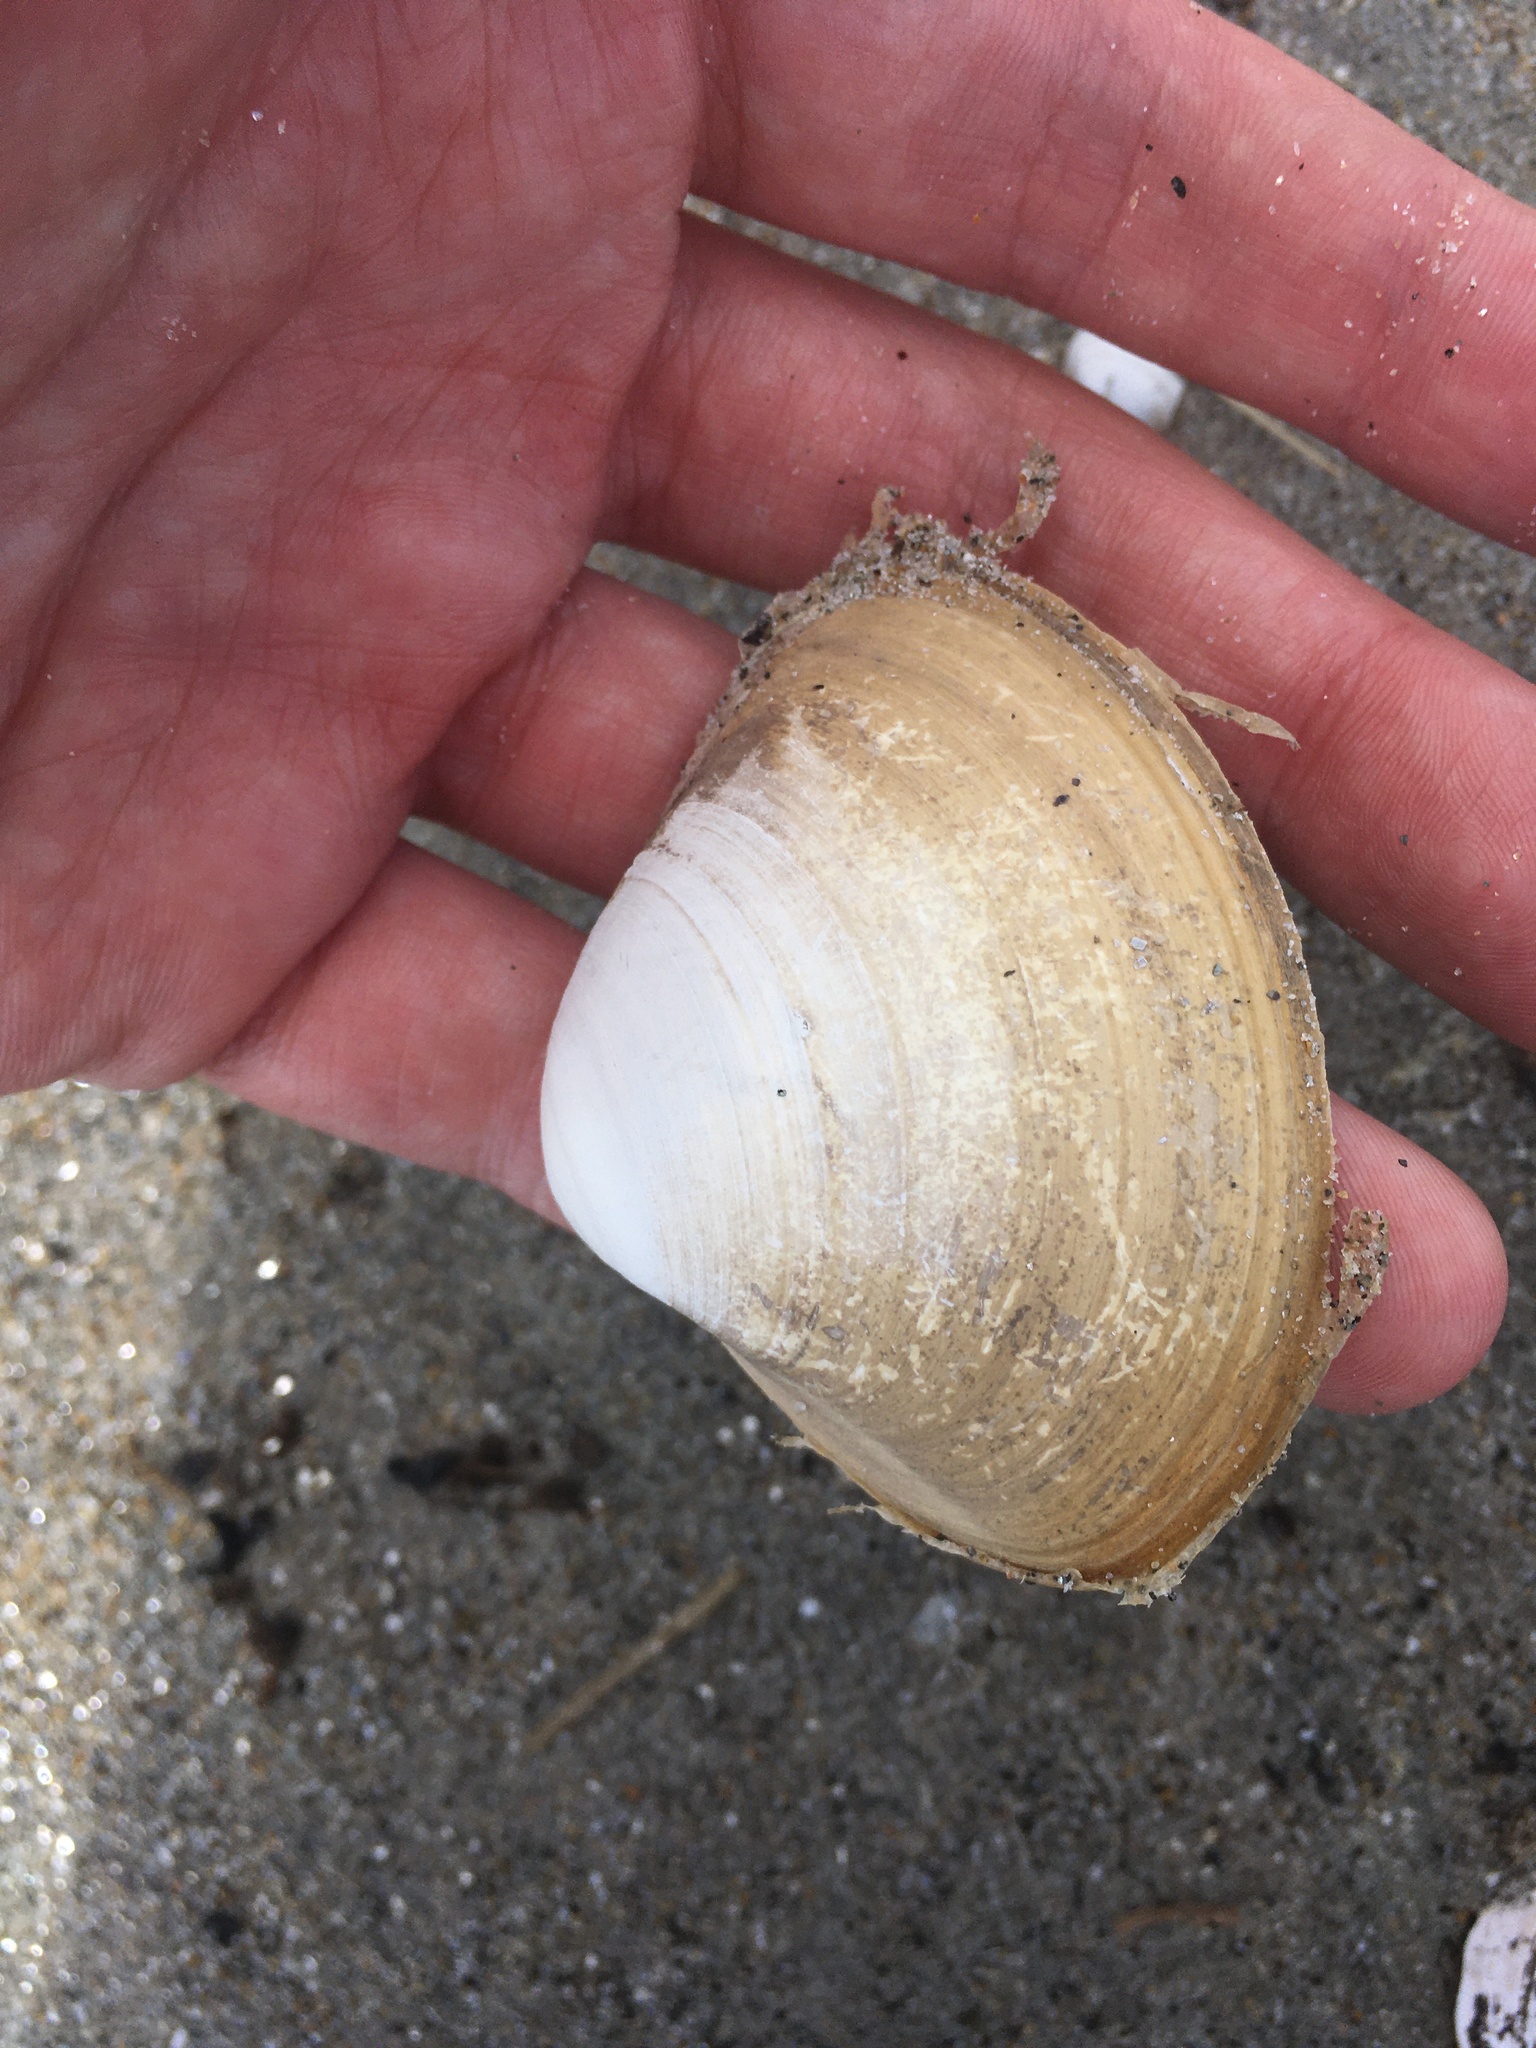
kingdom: Animalia
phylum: Mollusca
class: Bivalvia
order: Venerida
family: Mactridae
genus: Spisula
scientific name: Spisula solidissima
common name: Atlantic surf clam
